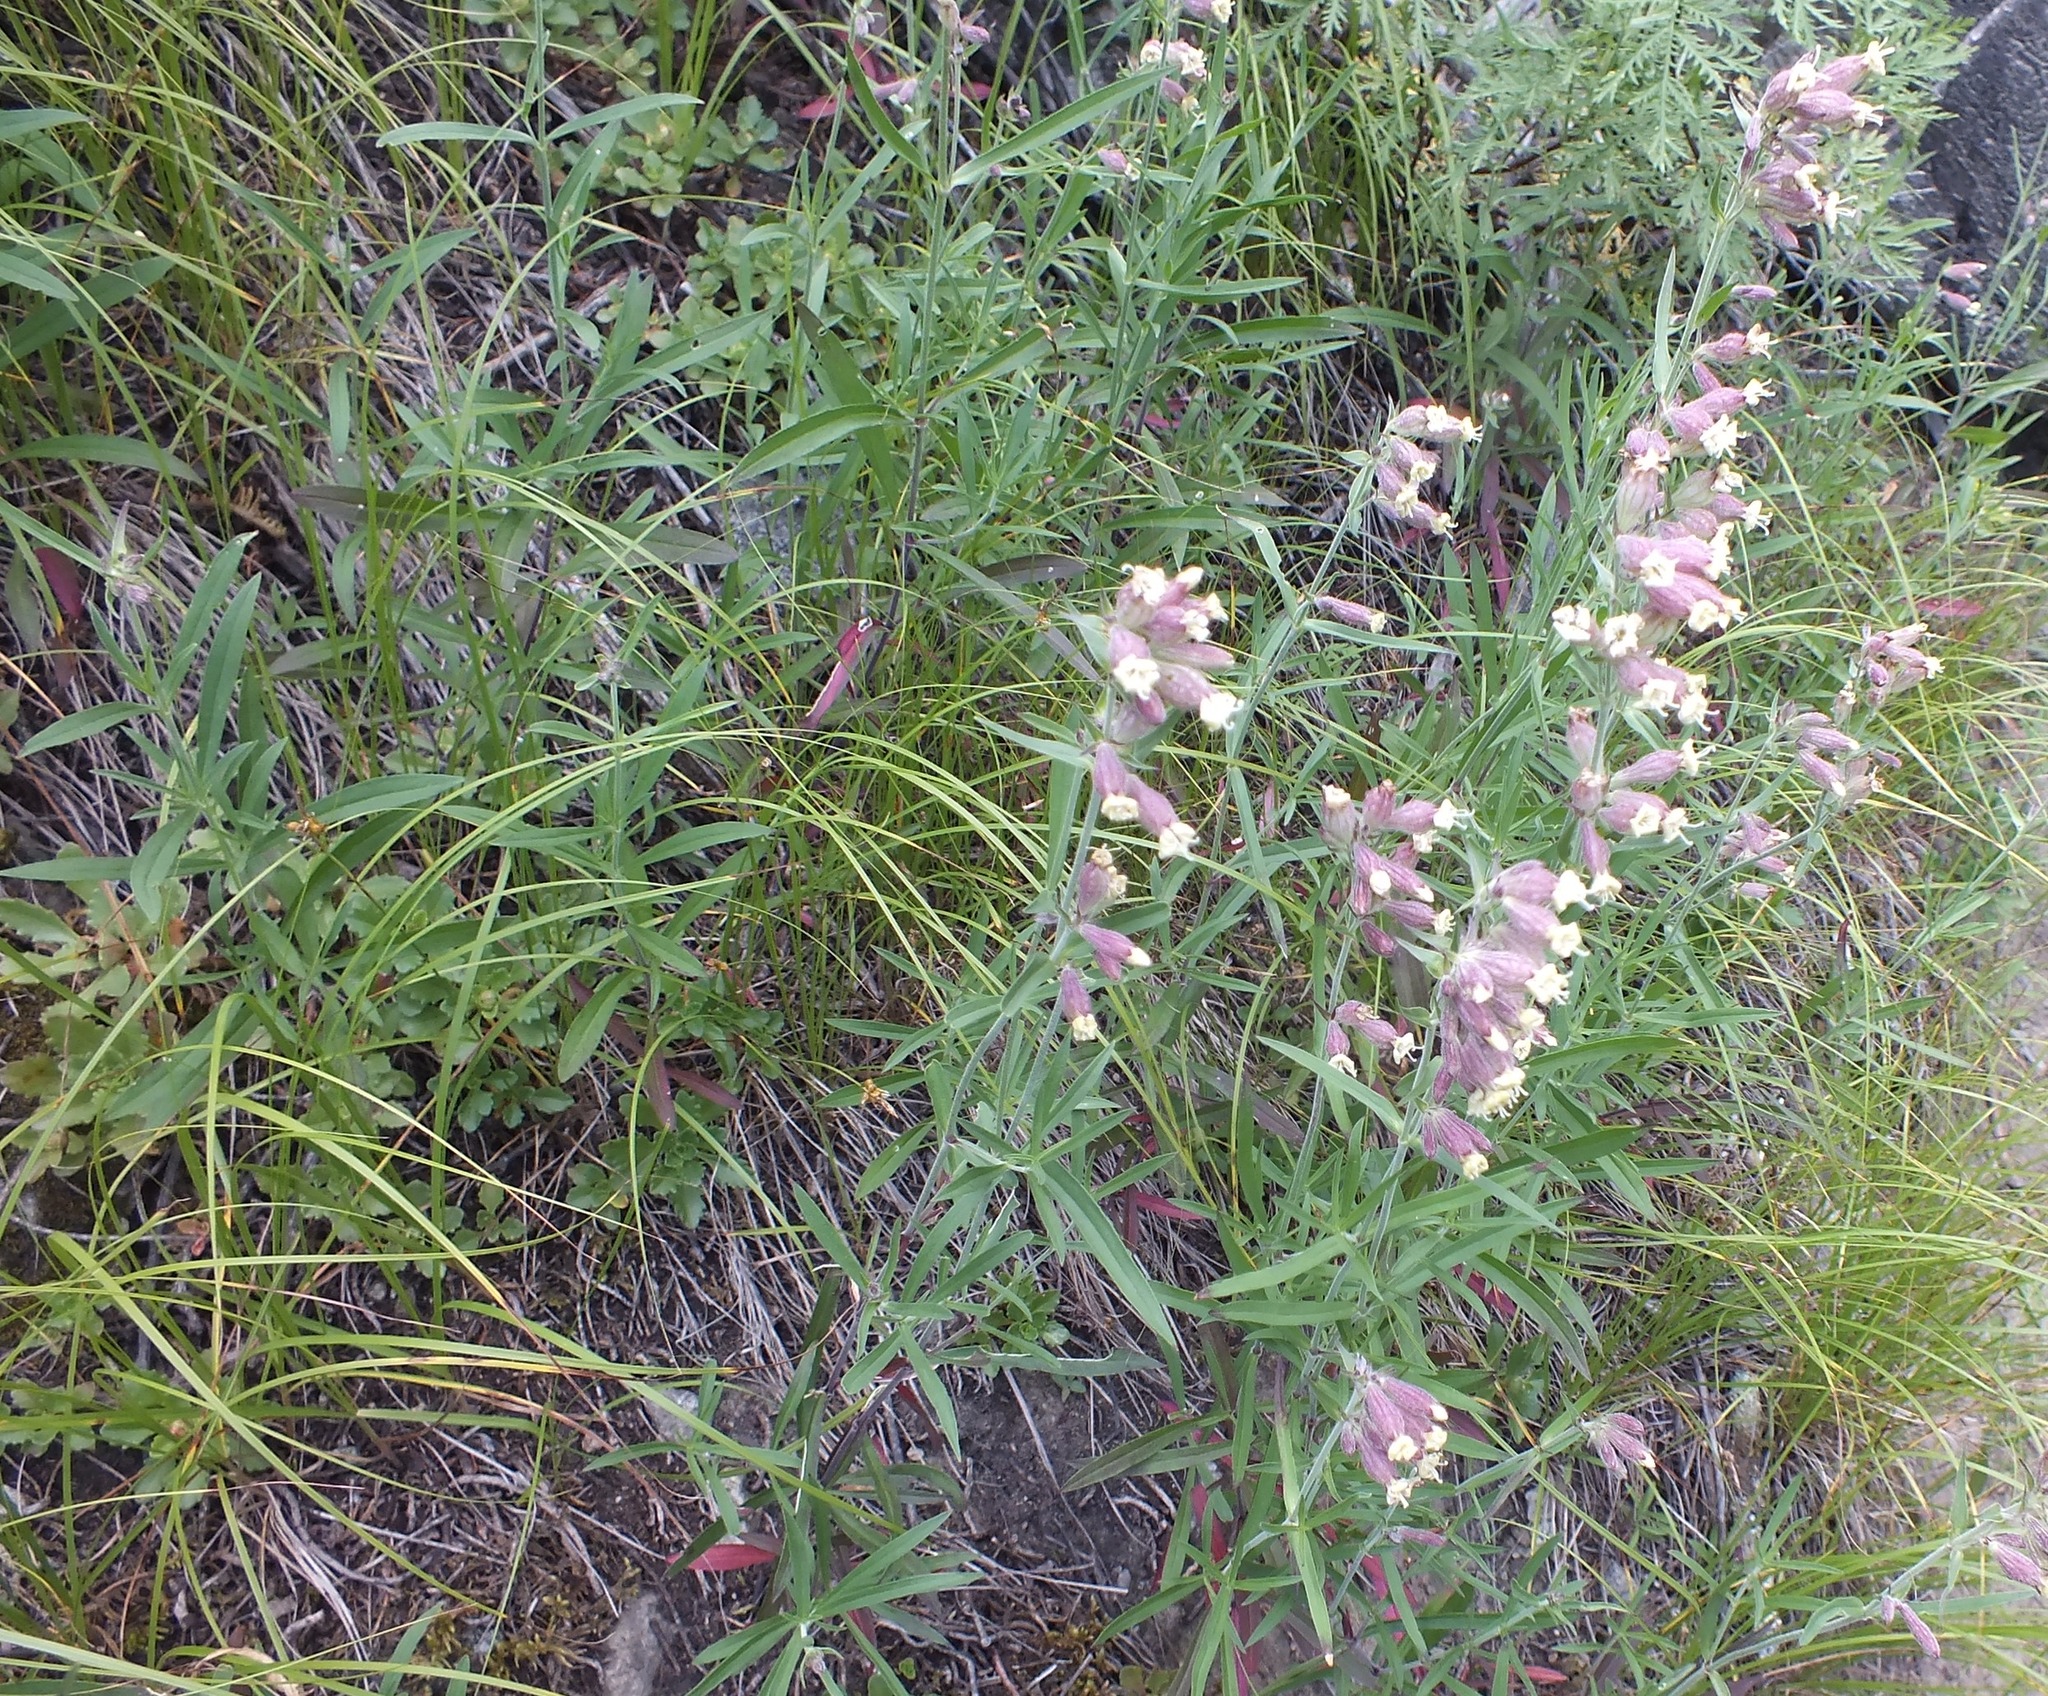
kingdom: Plantae
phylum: Tracheophyta
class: Magnoliopsida
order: Caryophyllales
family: Caryophyllaceae
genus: Silene
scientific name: Silene amoena
